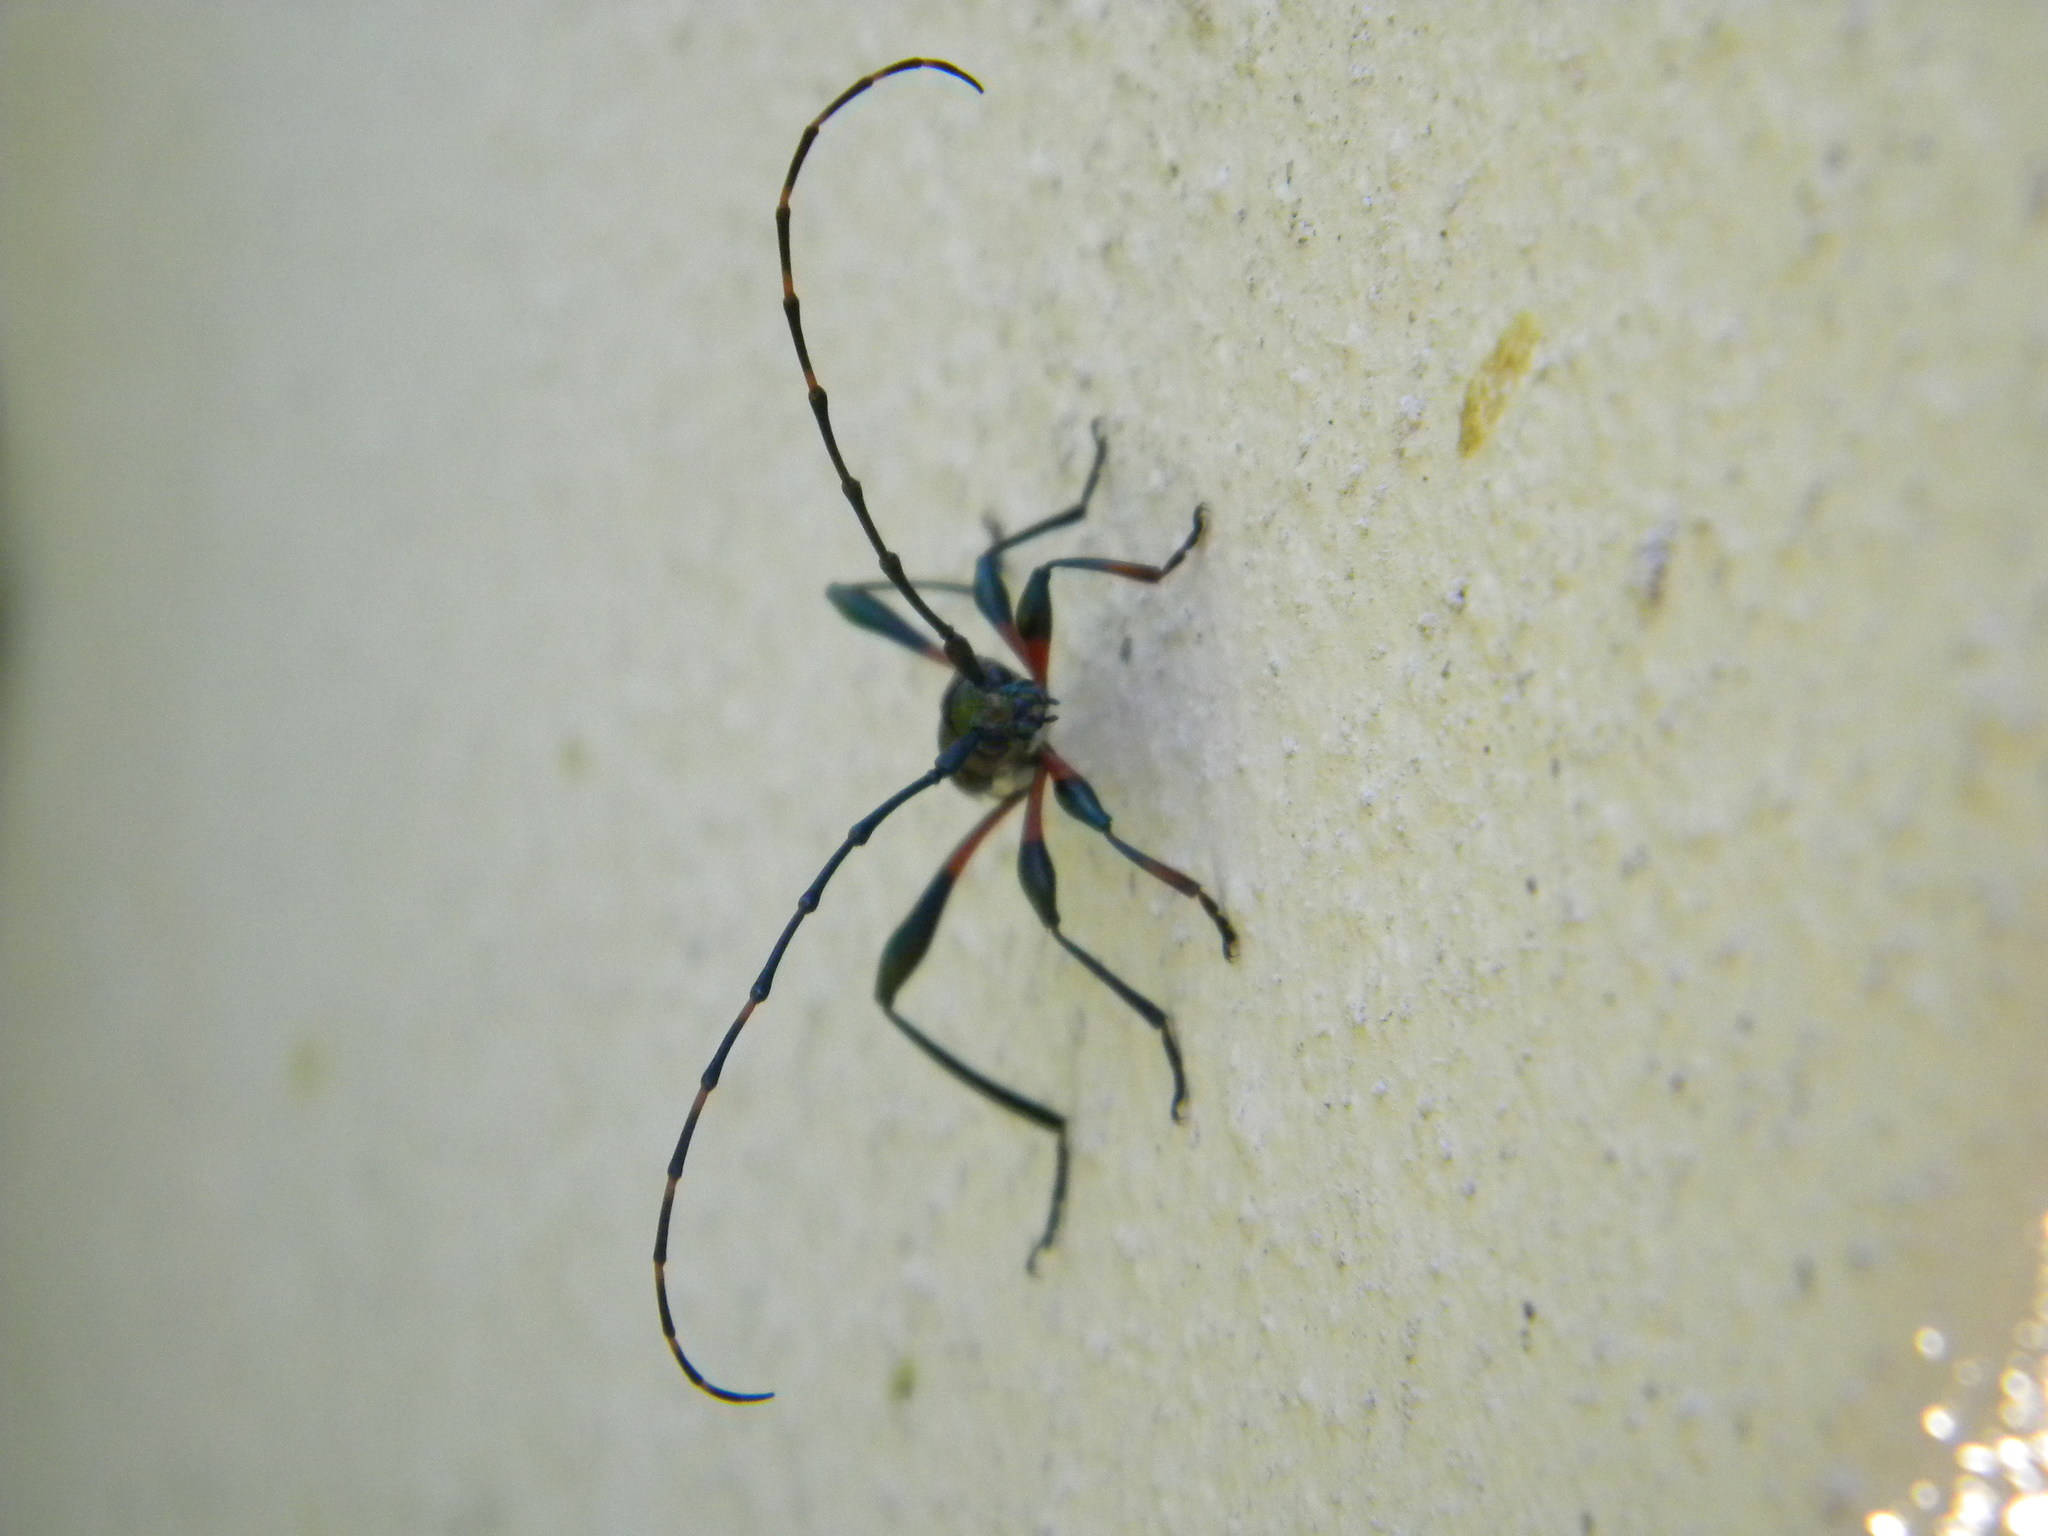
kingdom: Animalia
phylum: Arthropoda
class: Insecta
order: Coleoptera
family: Cerambycidae
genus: Litopus
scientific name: Litopus latipes
